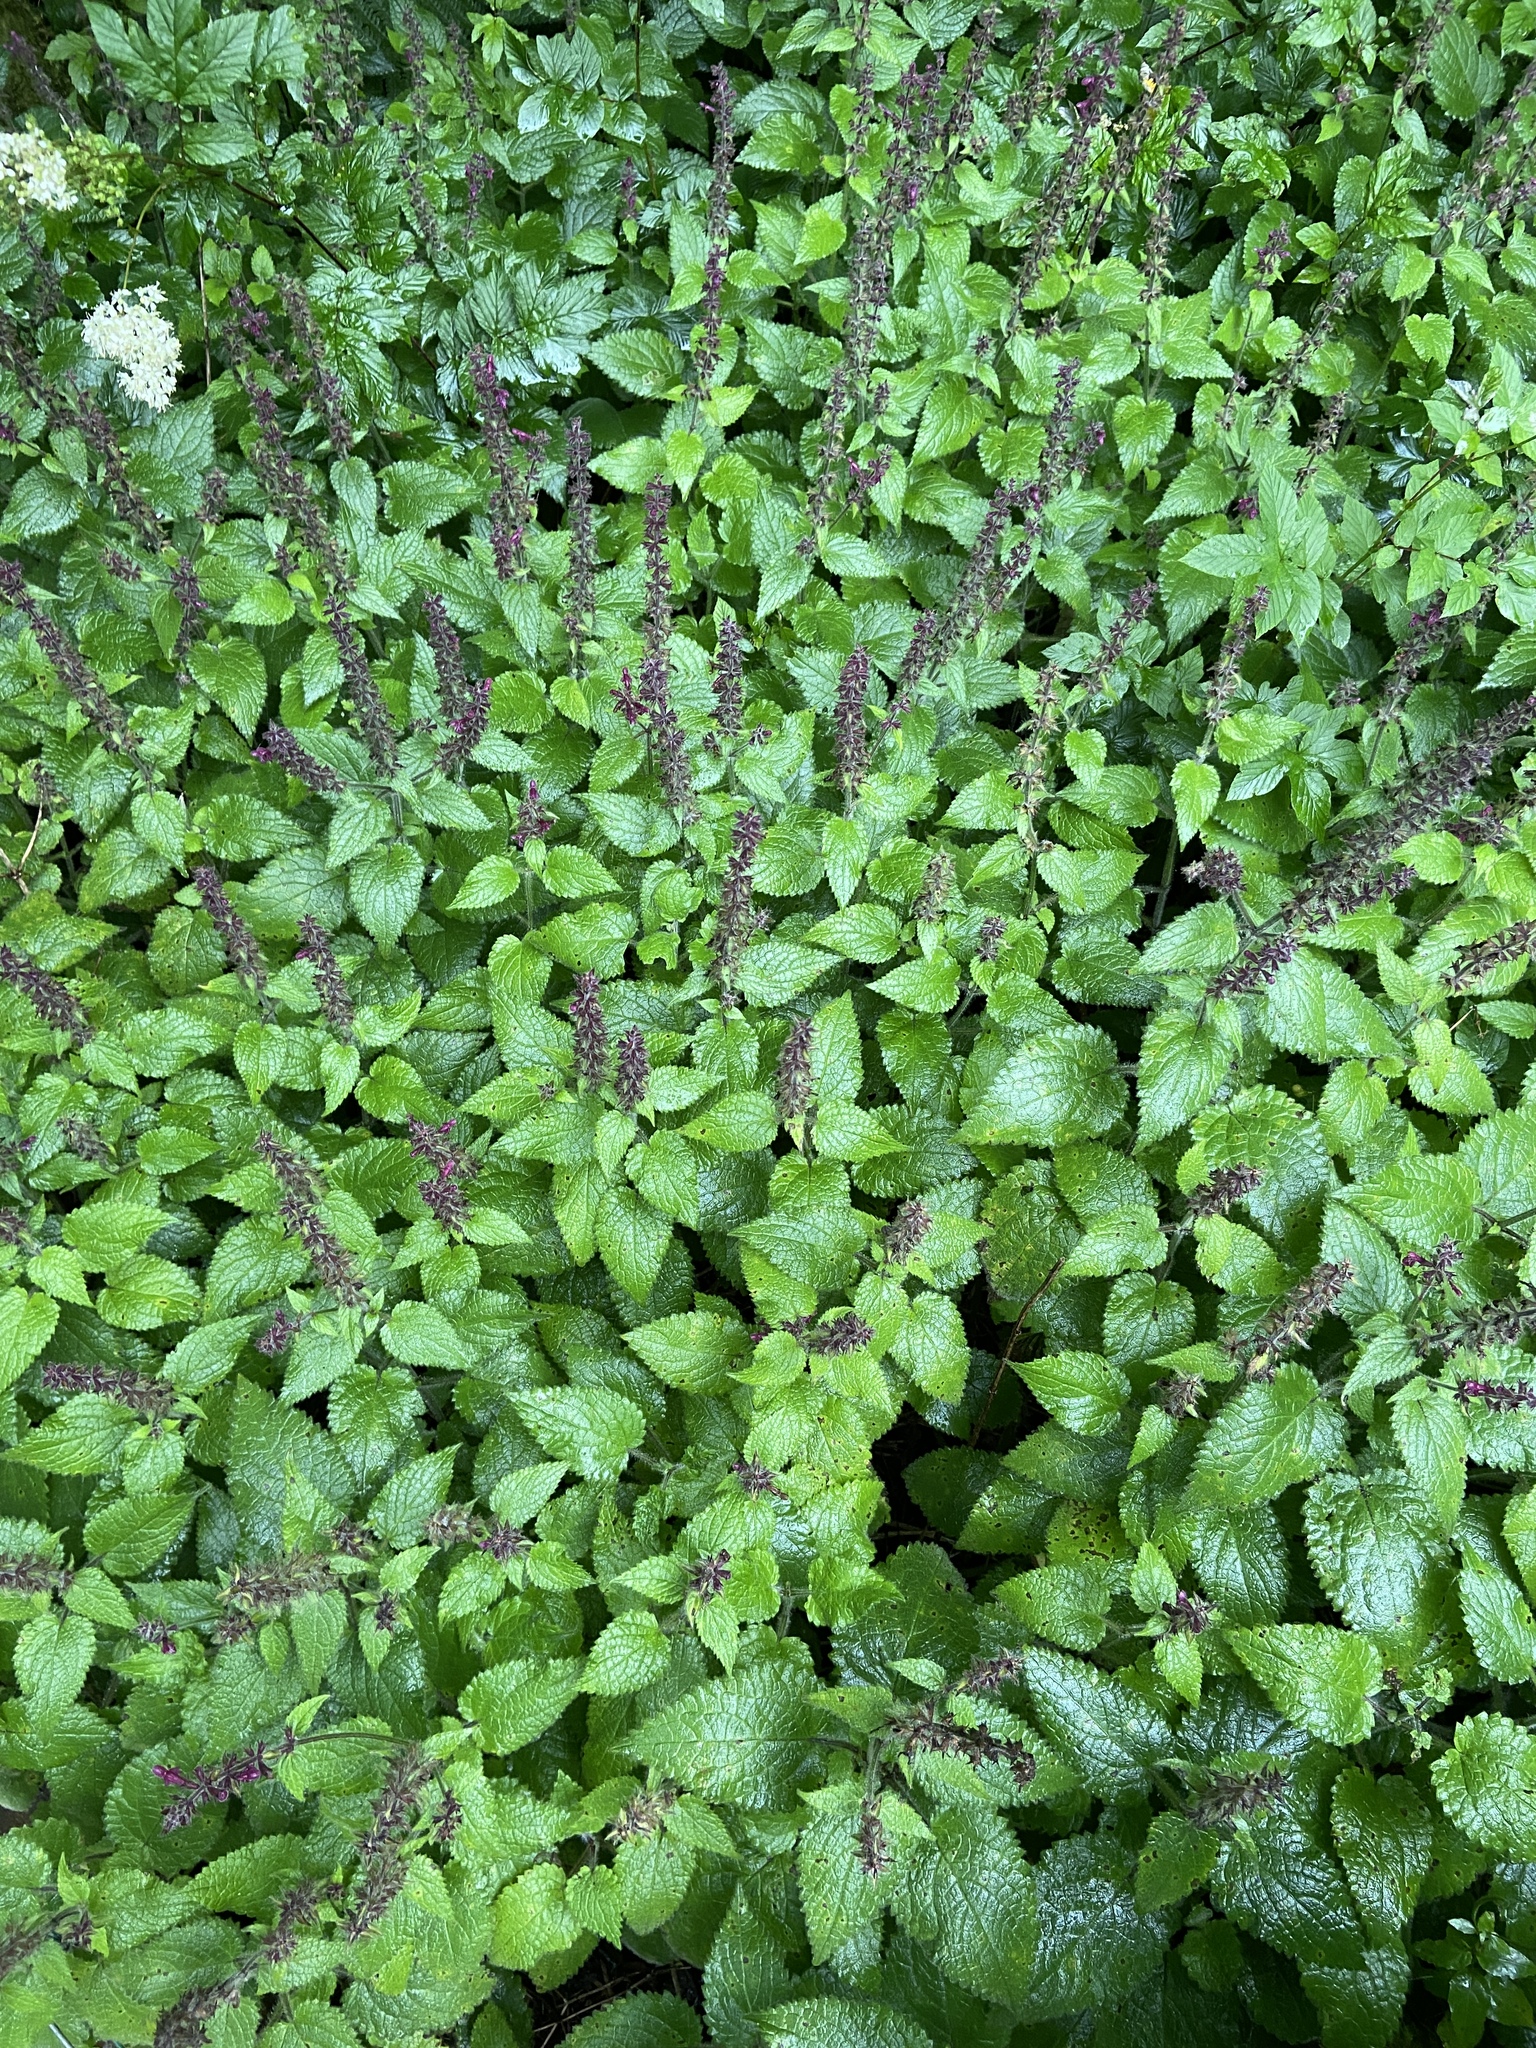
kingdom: Plantae
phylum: Tracheophyta
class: Magnoliopsida
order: Lamiales
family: Lamiaceae
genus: Stachys
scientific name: Stachys sylvatica
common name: Hedge woundwort
